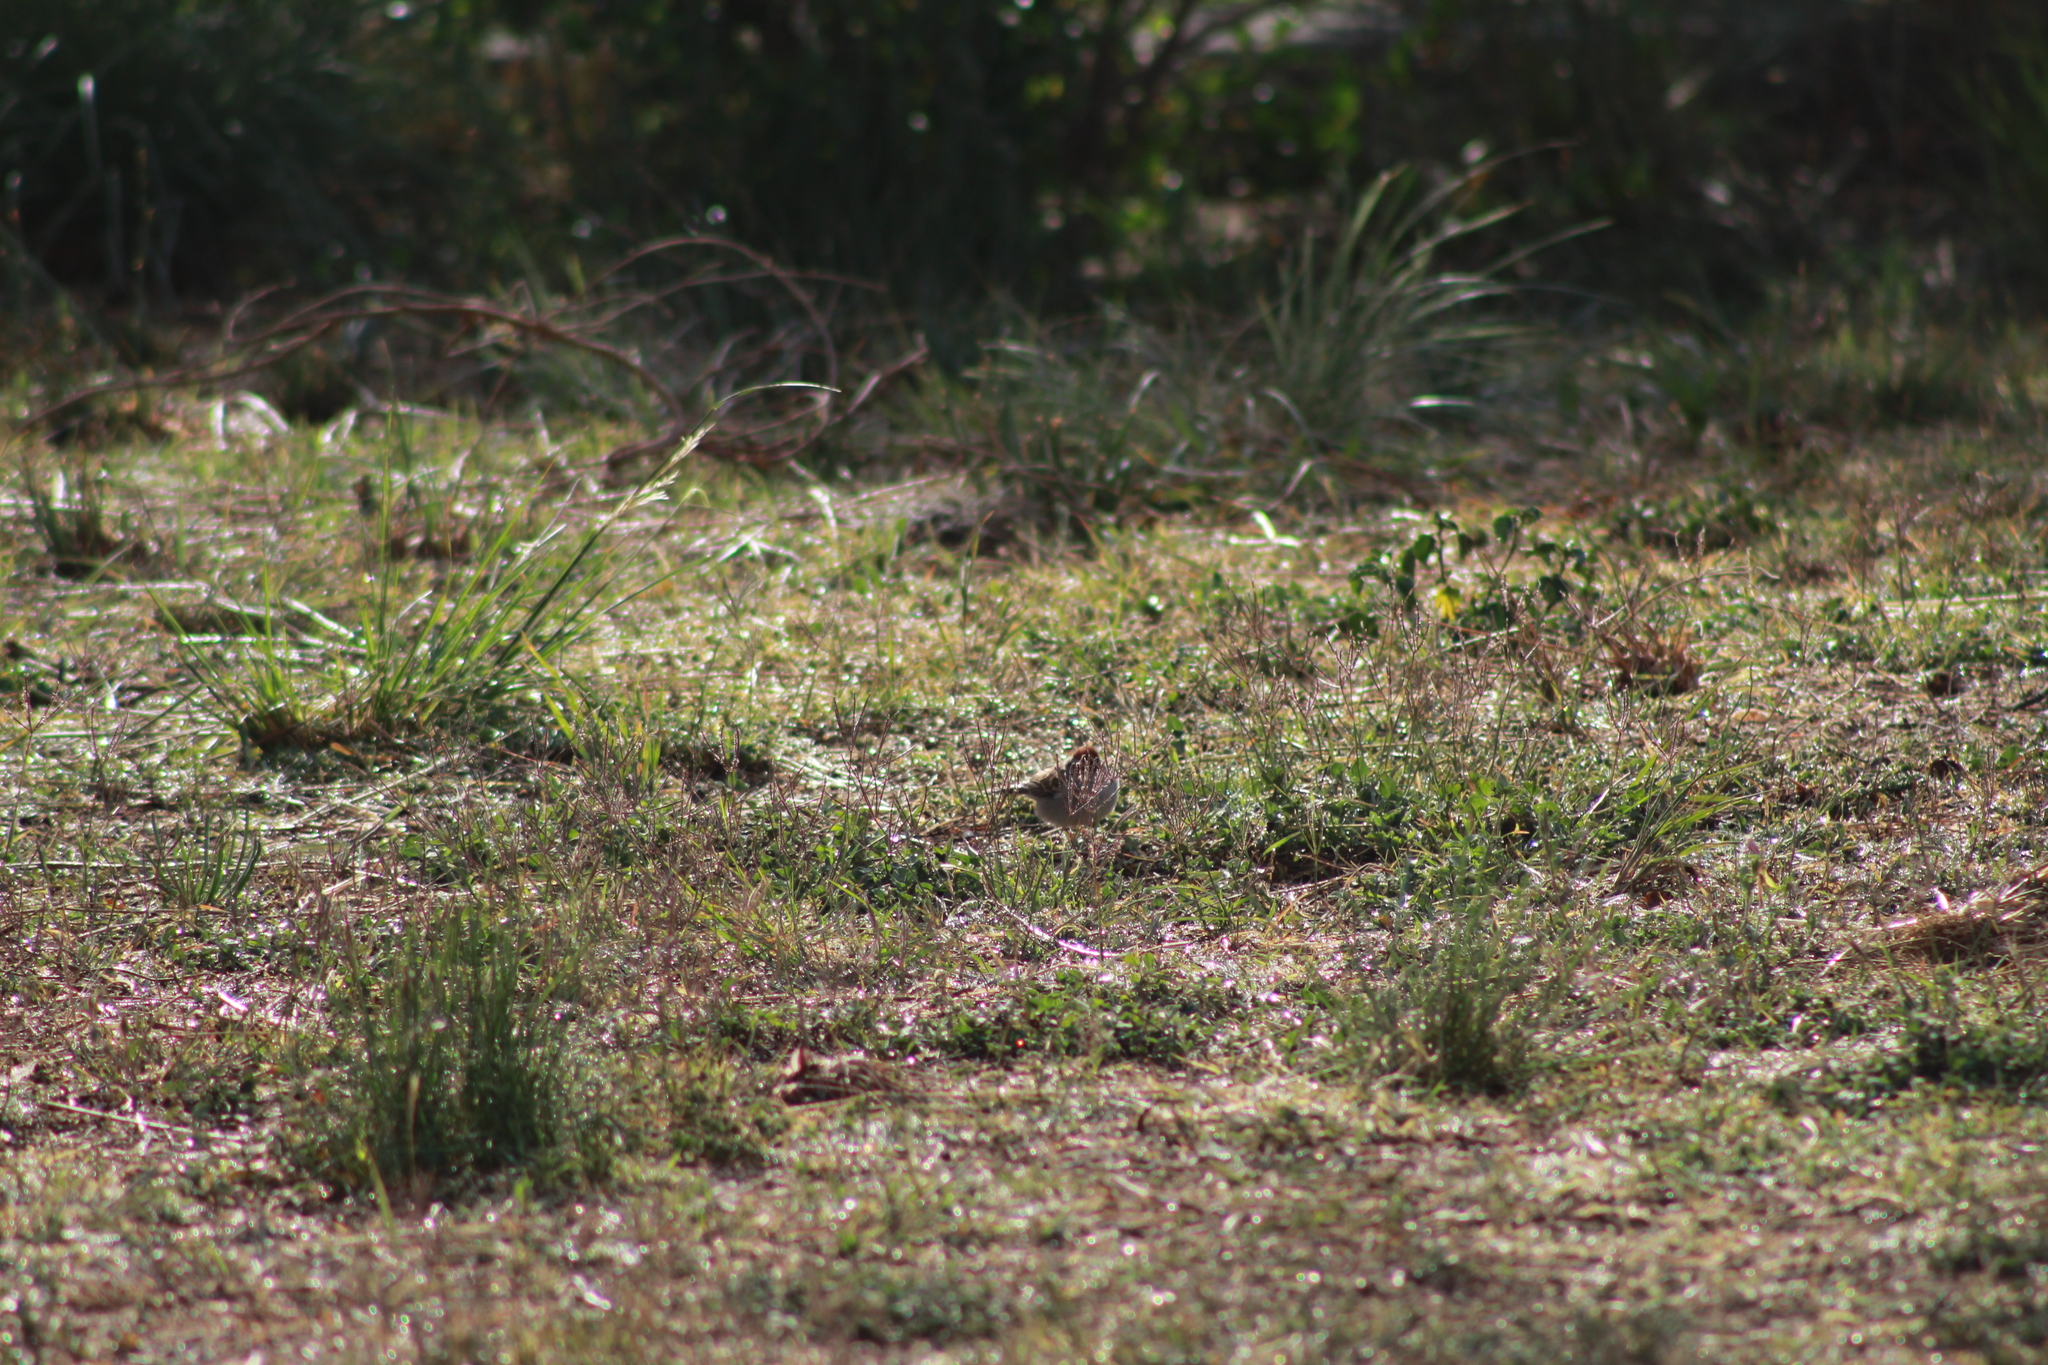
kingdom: Animalia
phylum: Chordata
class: Aves
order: Passeriformes
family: Passerellidae
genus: Spizella
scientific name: Spizella passerina
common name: Chipping sparrow
